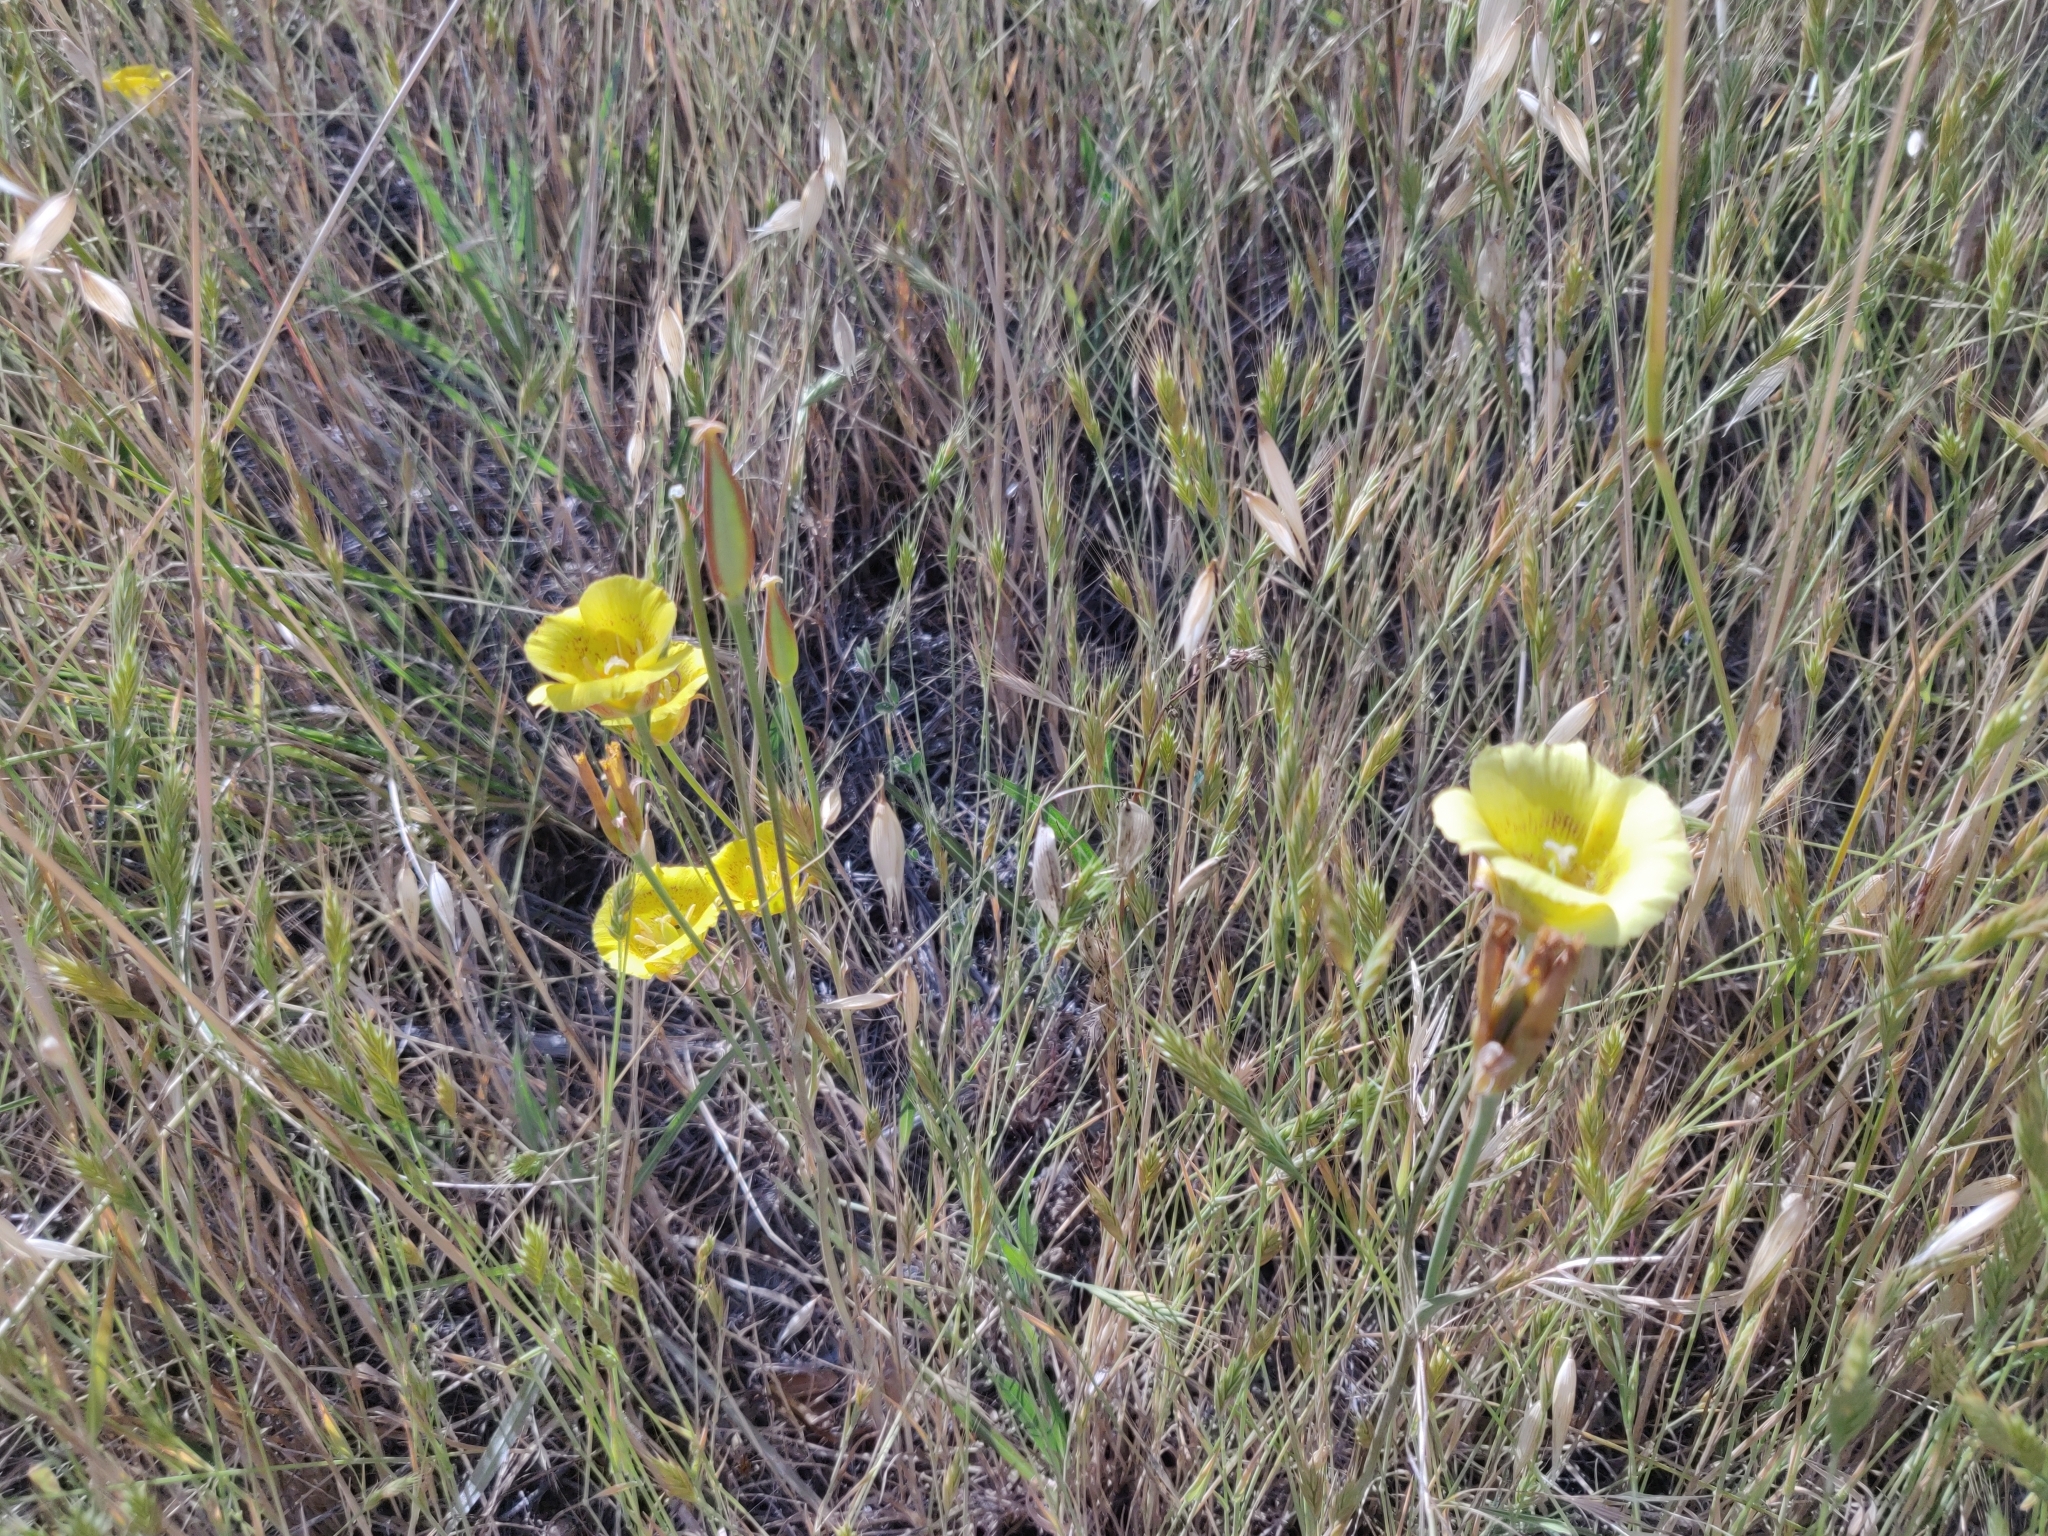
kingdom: Plantae
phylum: Tracheophyta
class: Liliopsida
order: Liliales
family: Liliaceae
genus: Calochortus
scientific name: Calochortus luteus
